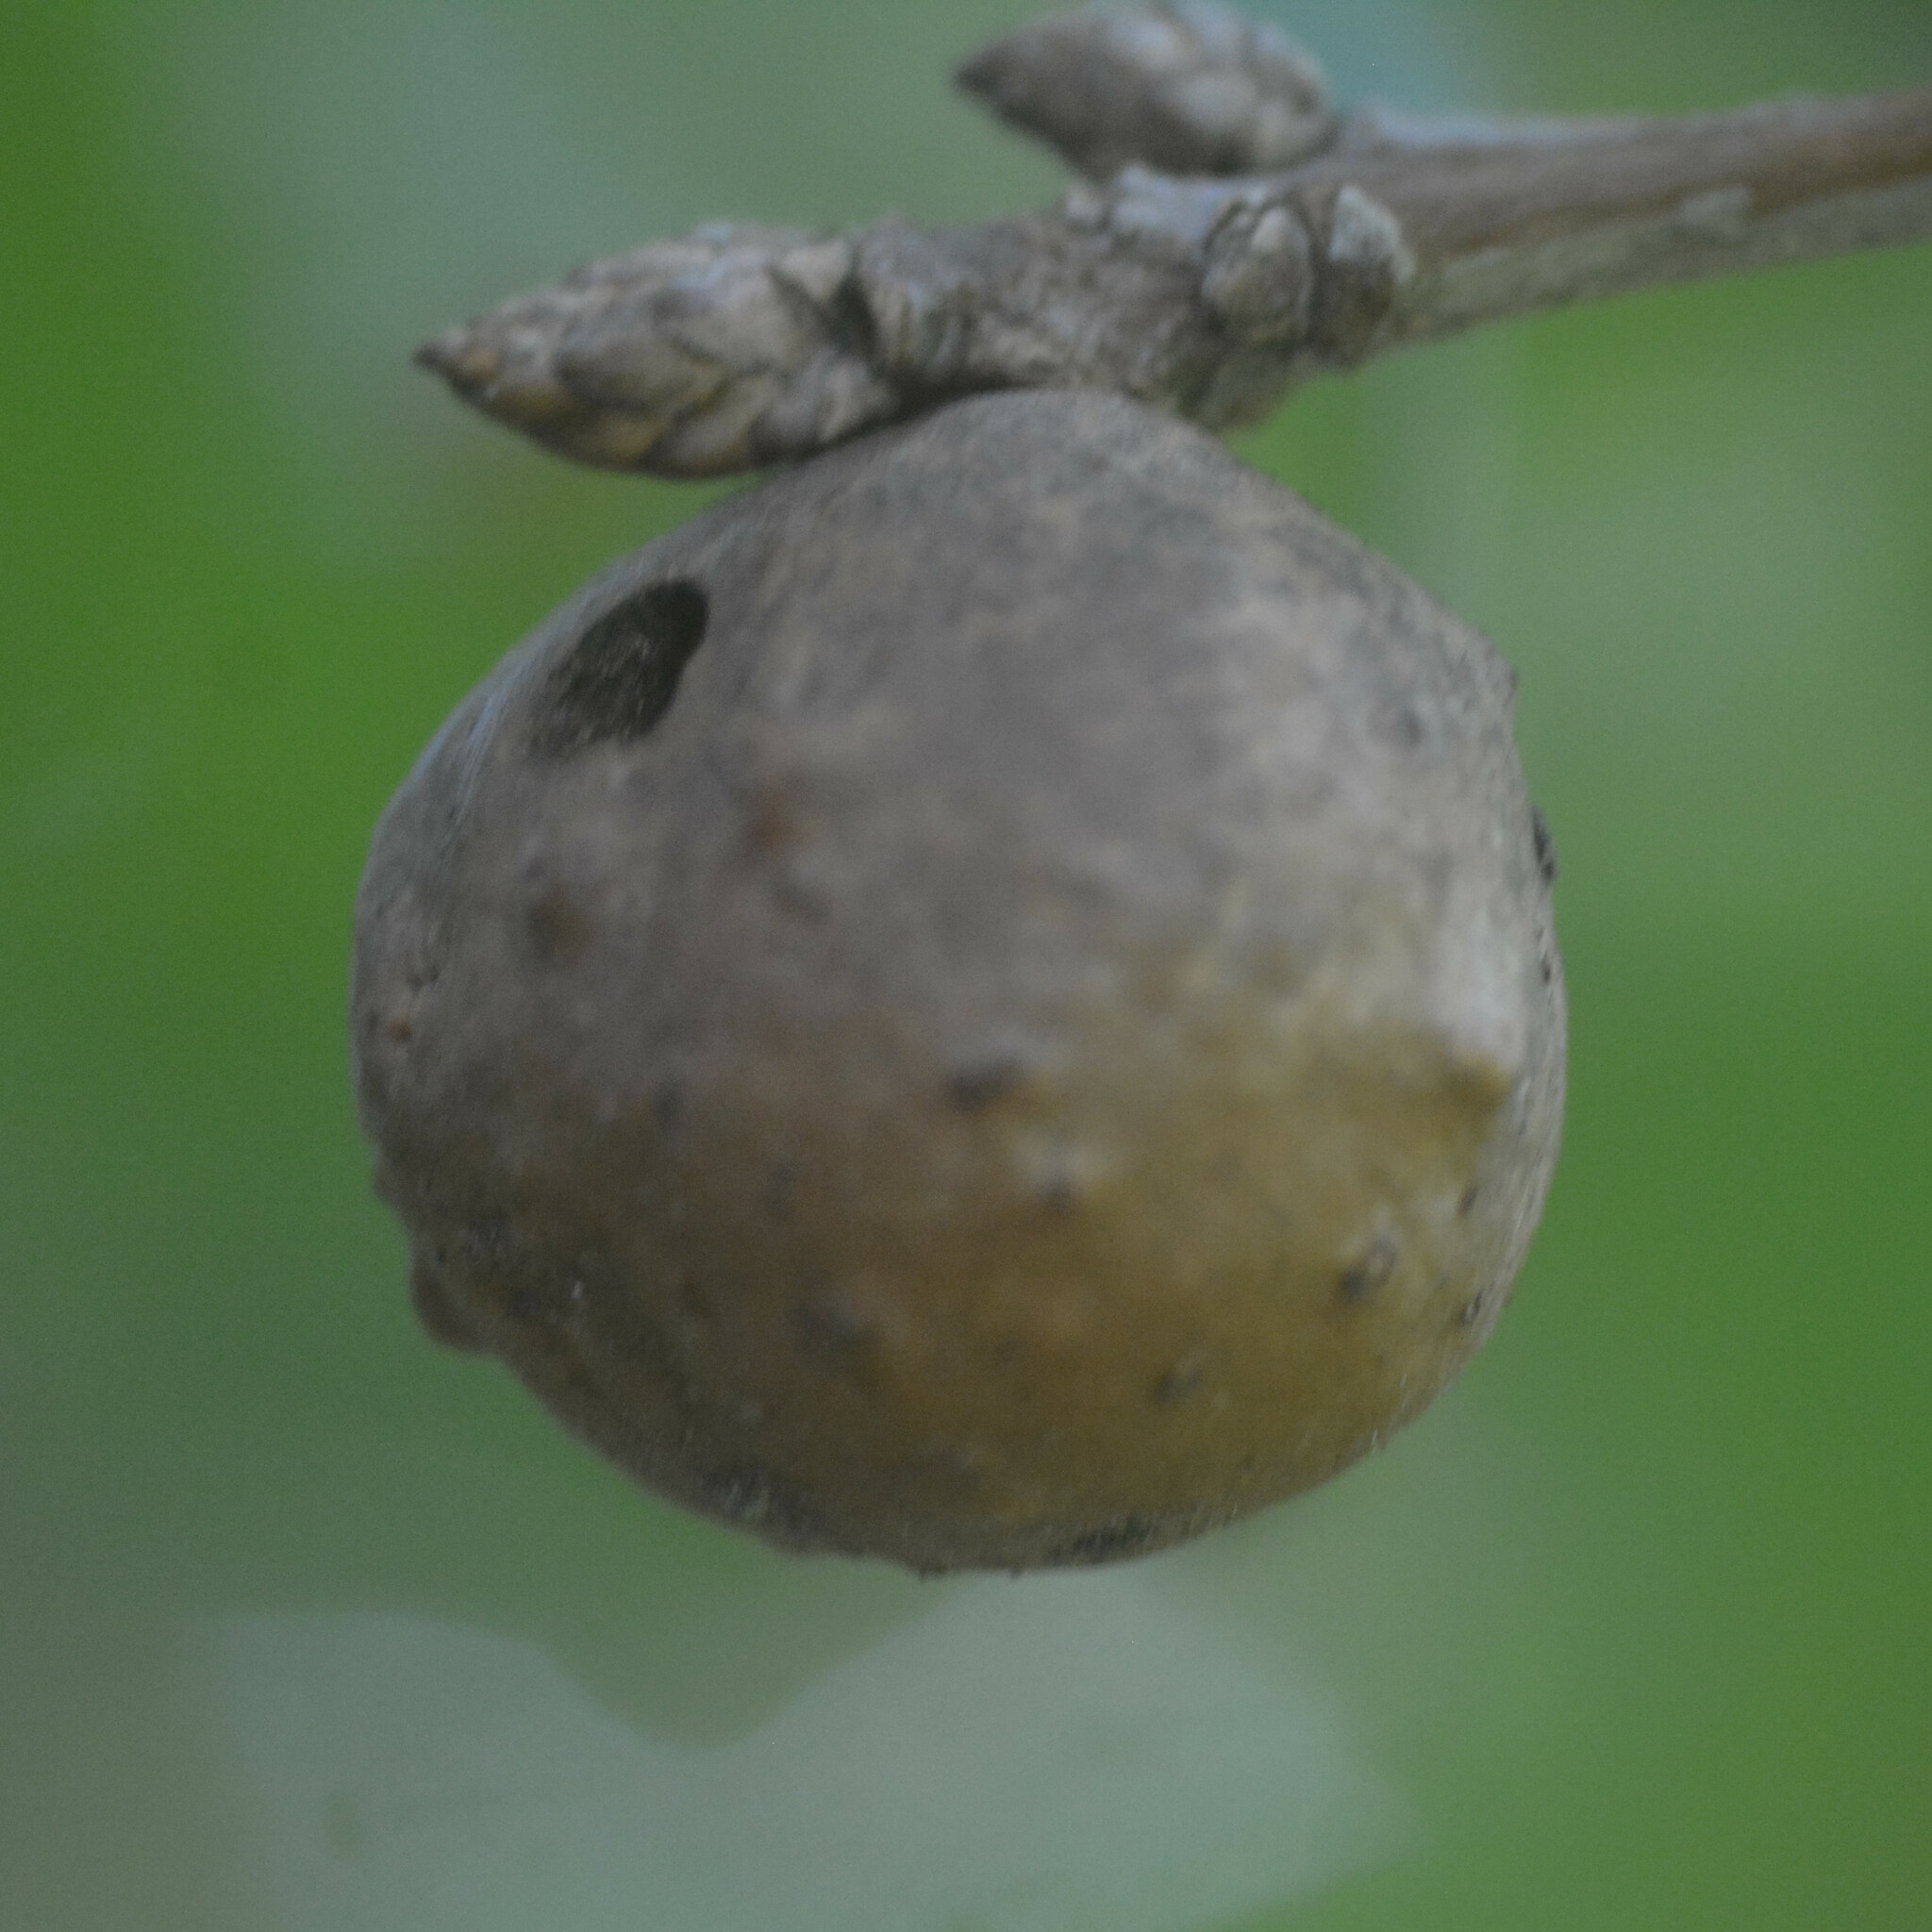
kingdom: Animalia
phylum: Arthropoda
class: Insecta
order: Hymenoptera
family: Cynipidae
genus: Andricus
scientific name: Andricus kollari
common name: Marble gall
